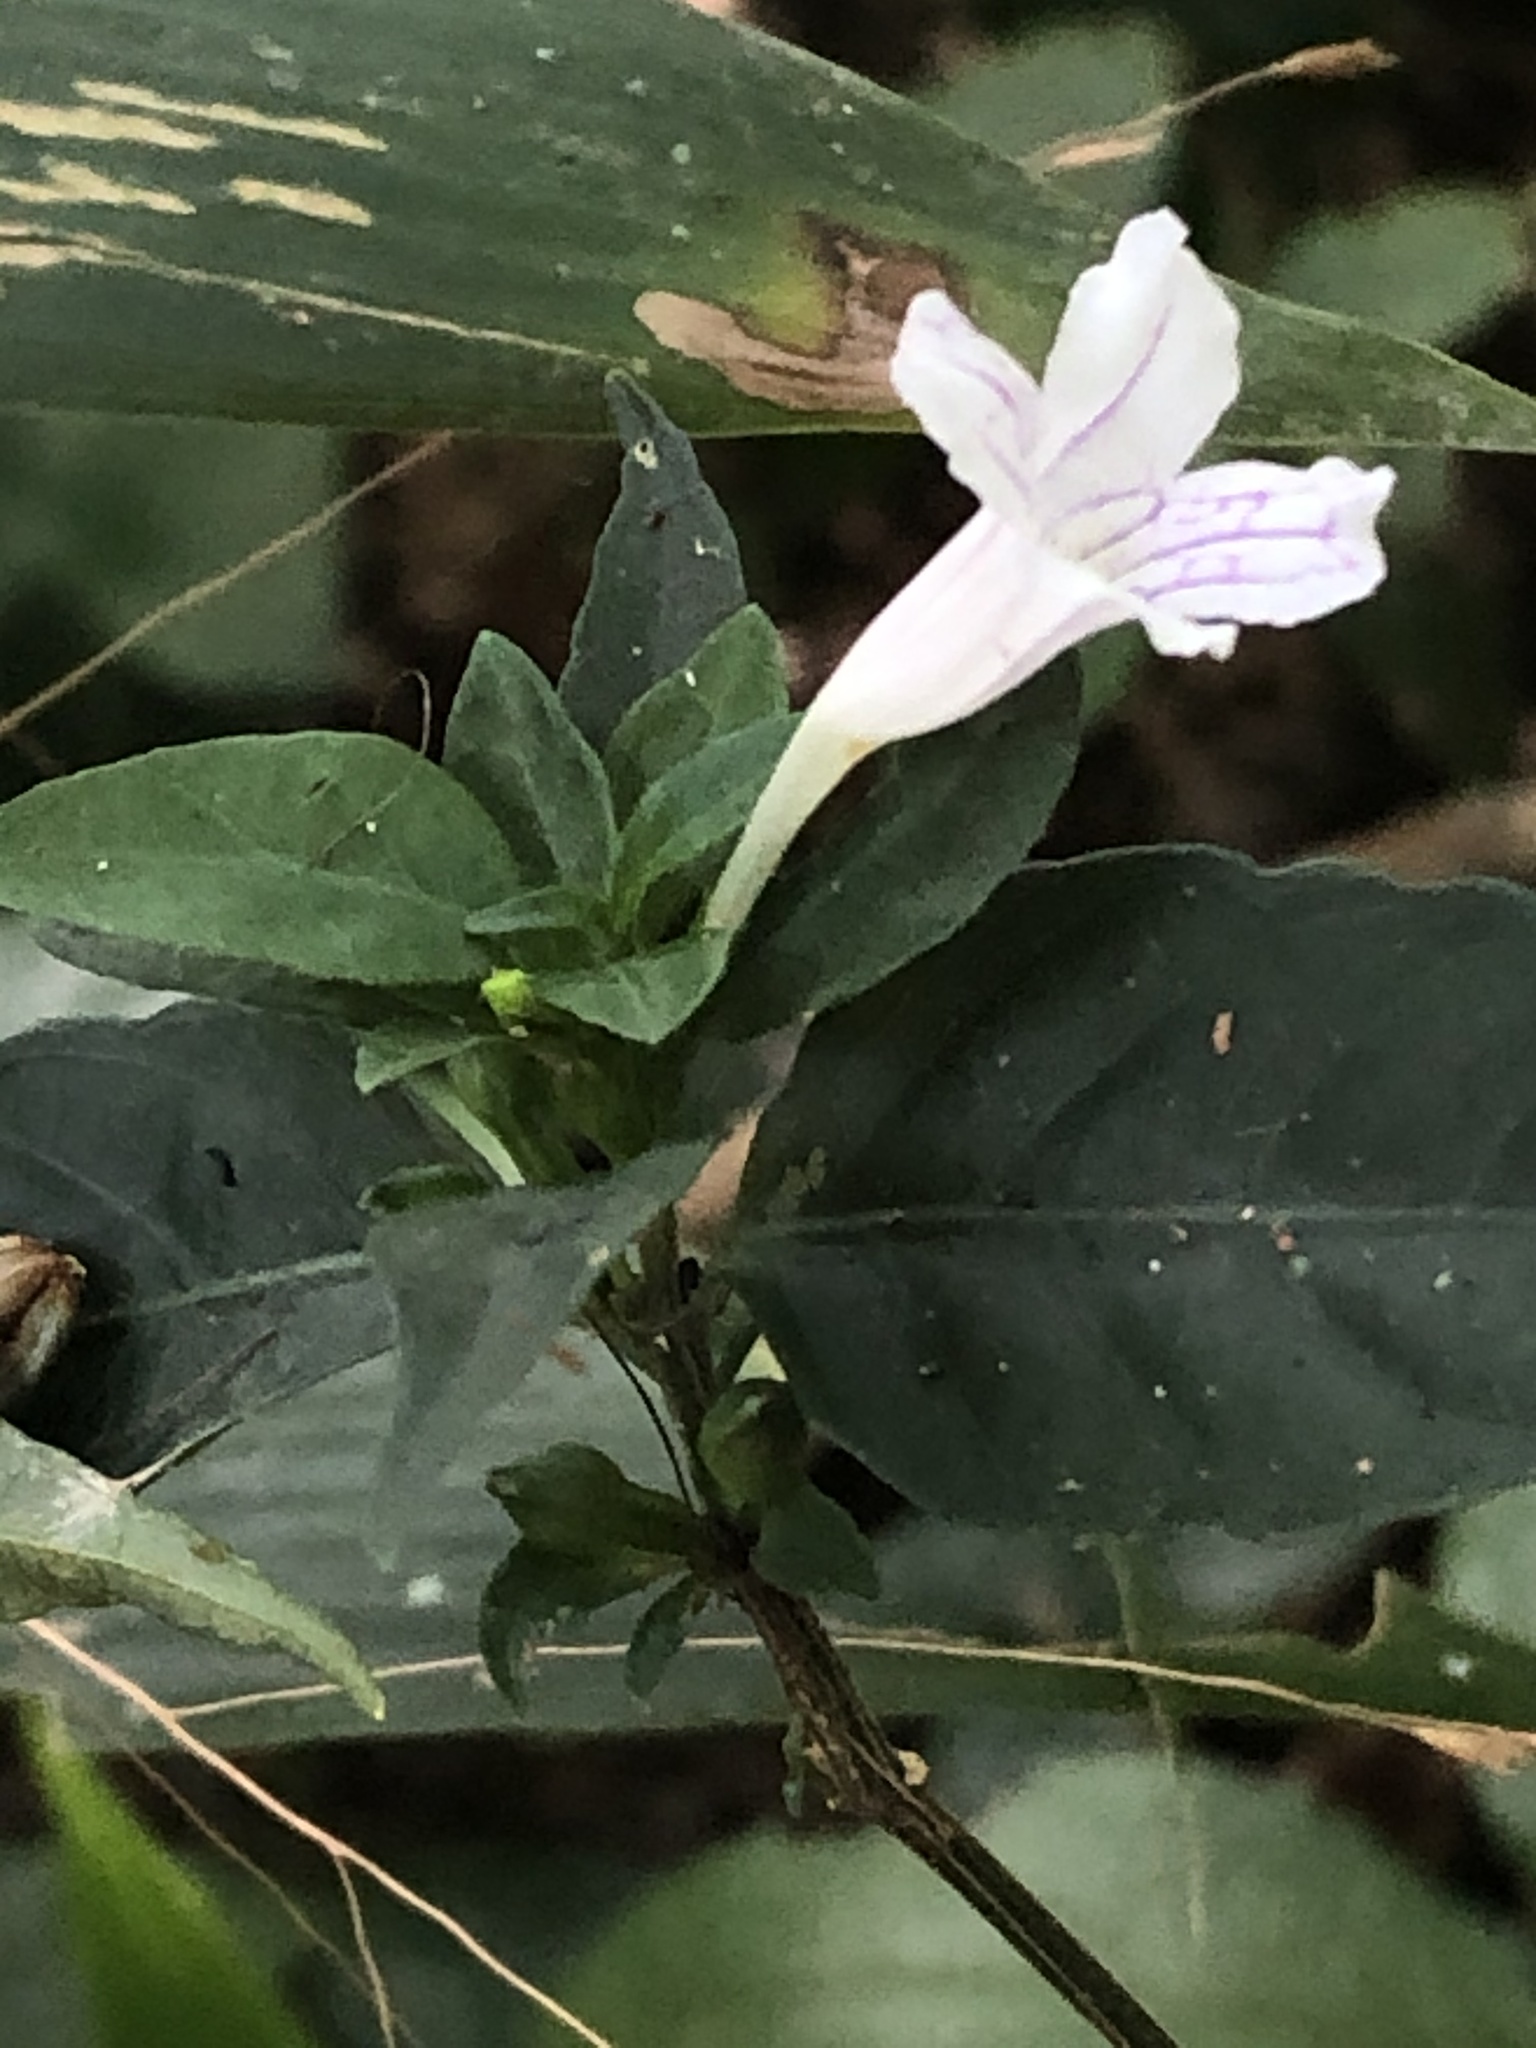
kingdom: Plantae
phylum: Tracheophyta
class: Magnoliopsida
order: Lamiales
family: Acanthaceae
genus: Ruellia
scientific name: Ruellia terminalis
